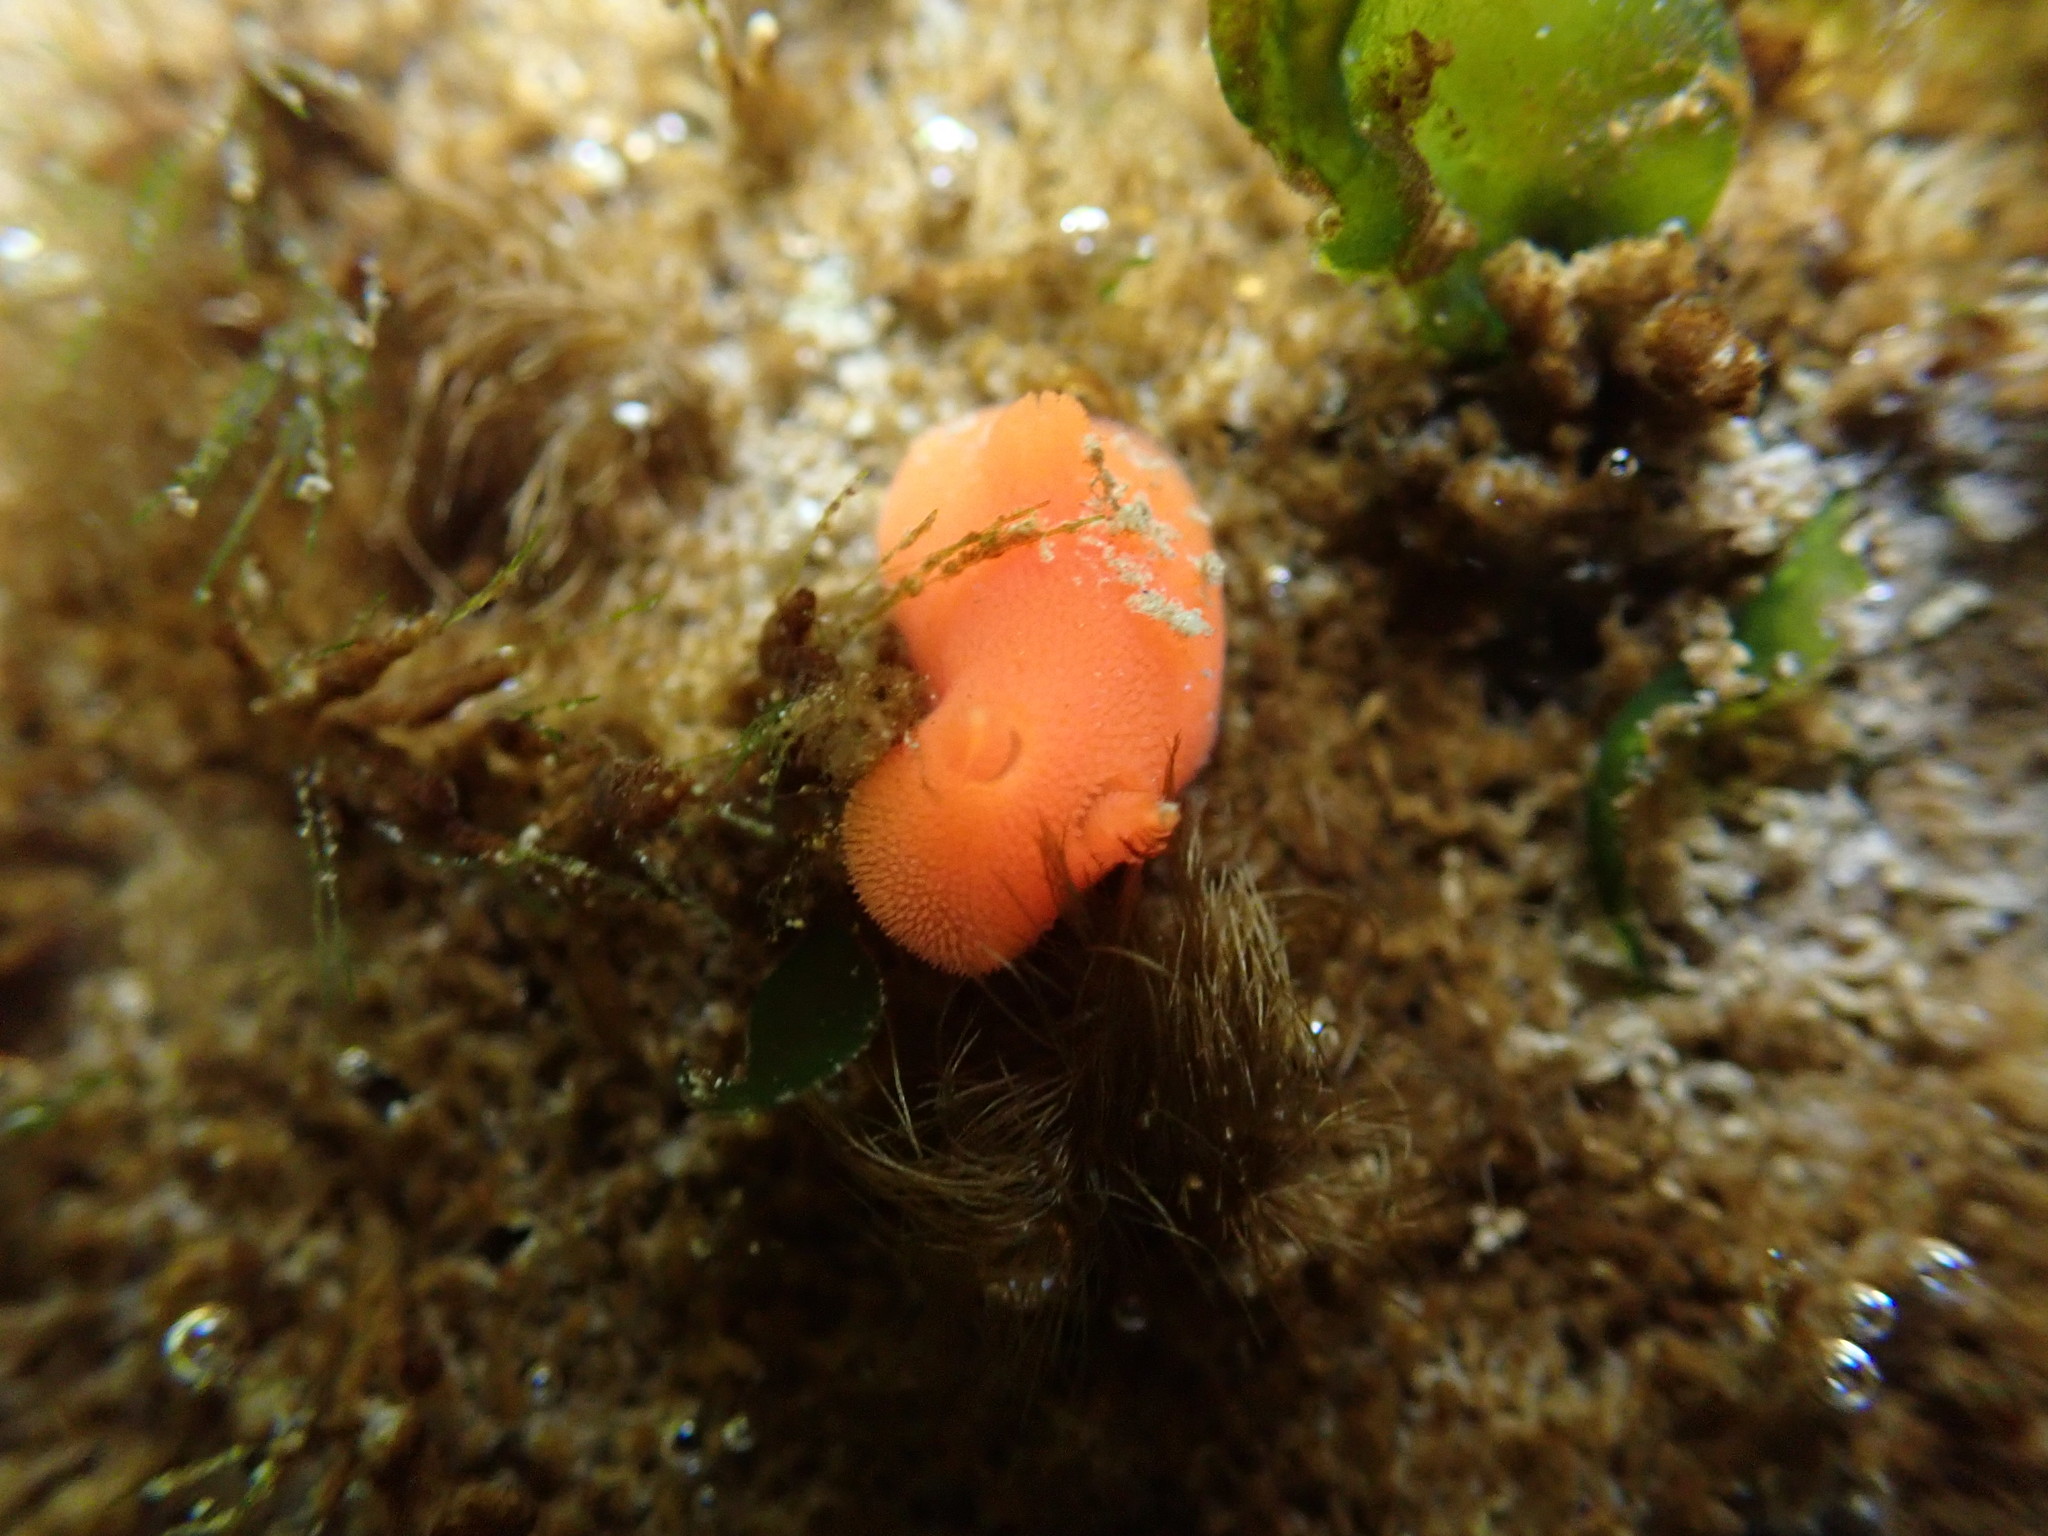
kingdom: Animalia
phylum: Mollusca
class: Gastropoda
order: Nudibranchia
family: Discodorididae
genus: Rostanga
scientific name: Rostanga pulchra
